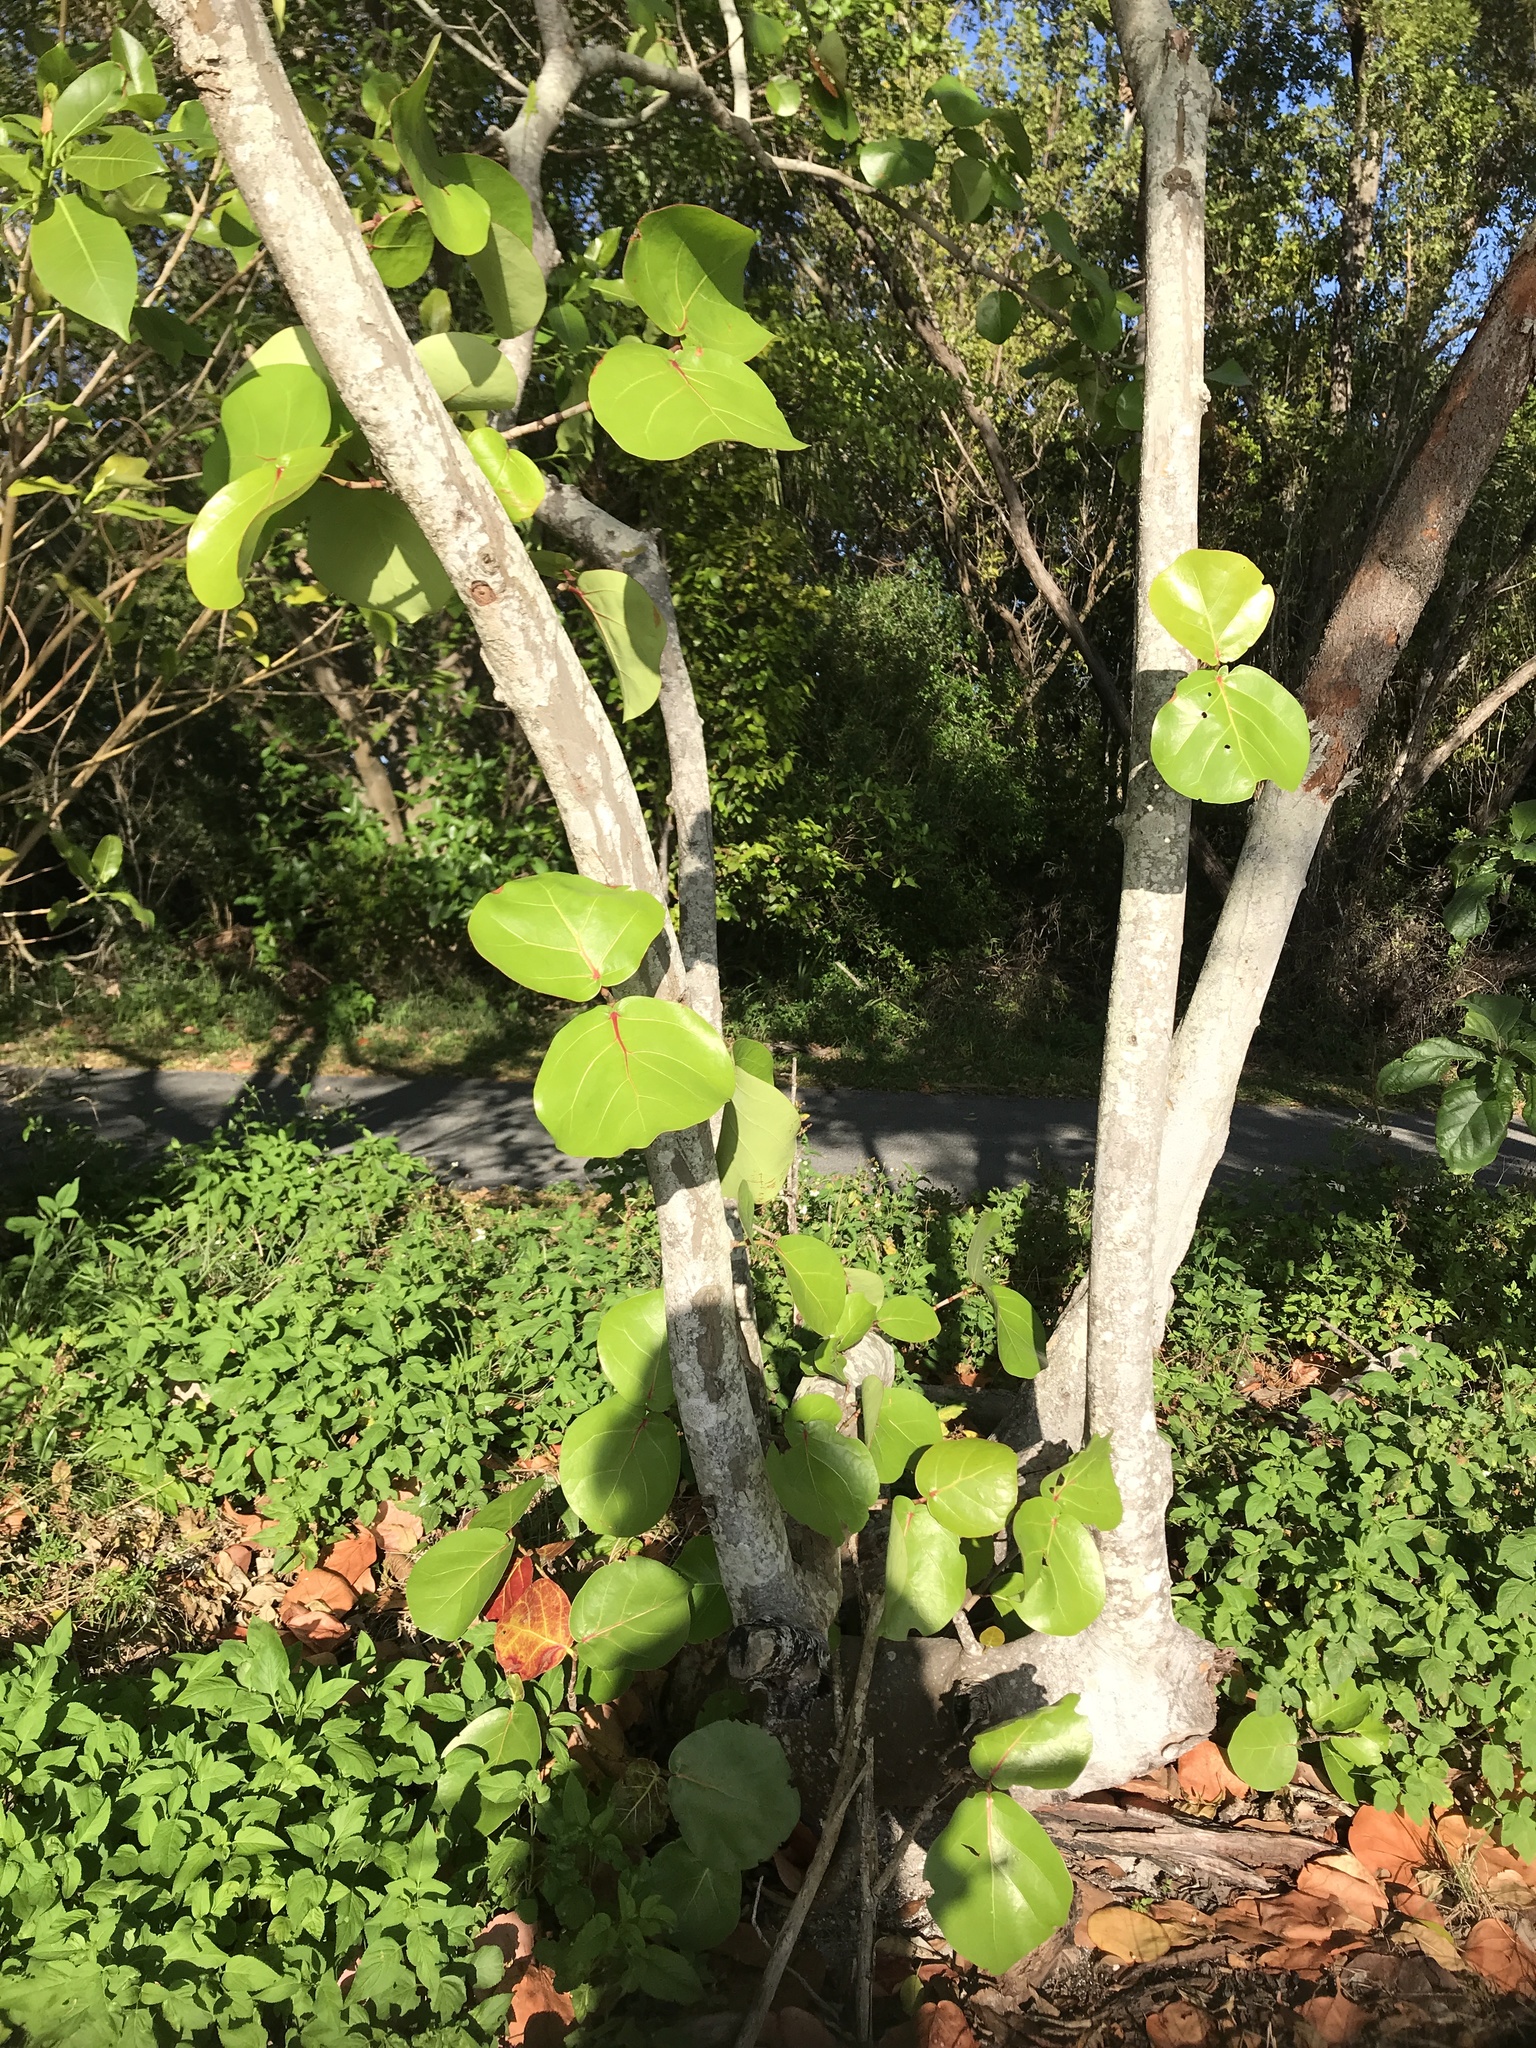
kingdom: Plantae
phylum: Tracheophyta
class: Magnoliopsida
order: Caryophyllales
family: Polygonaceae
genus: Coccoloba
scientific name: Coccoloba uvifera
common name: Seagrape
